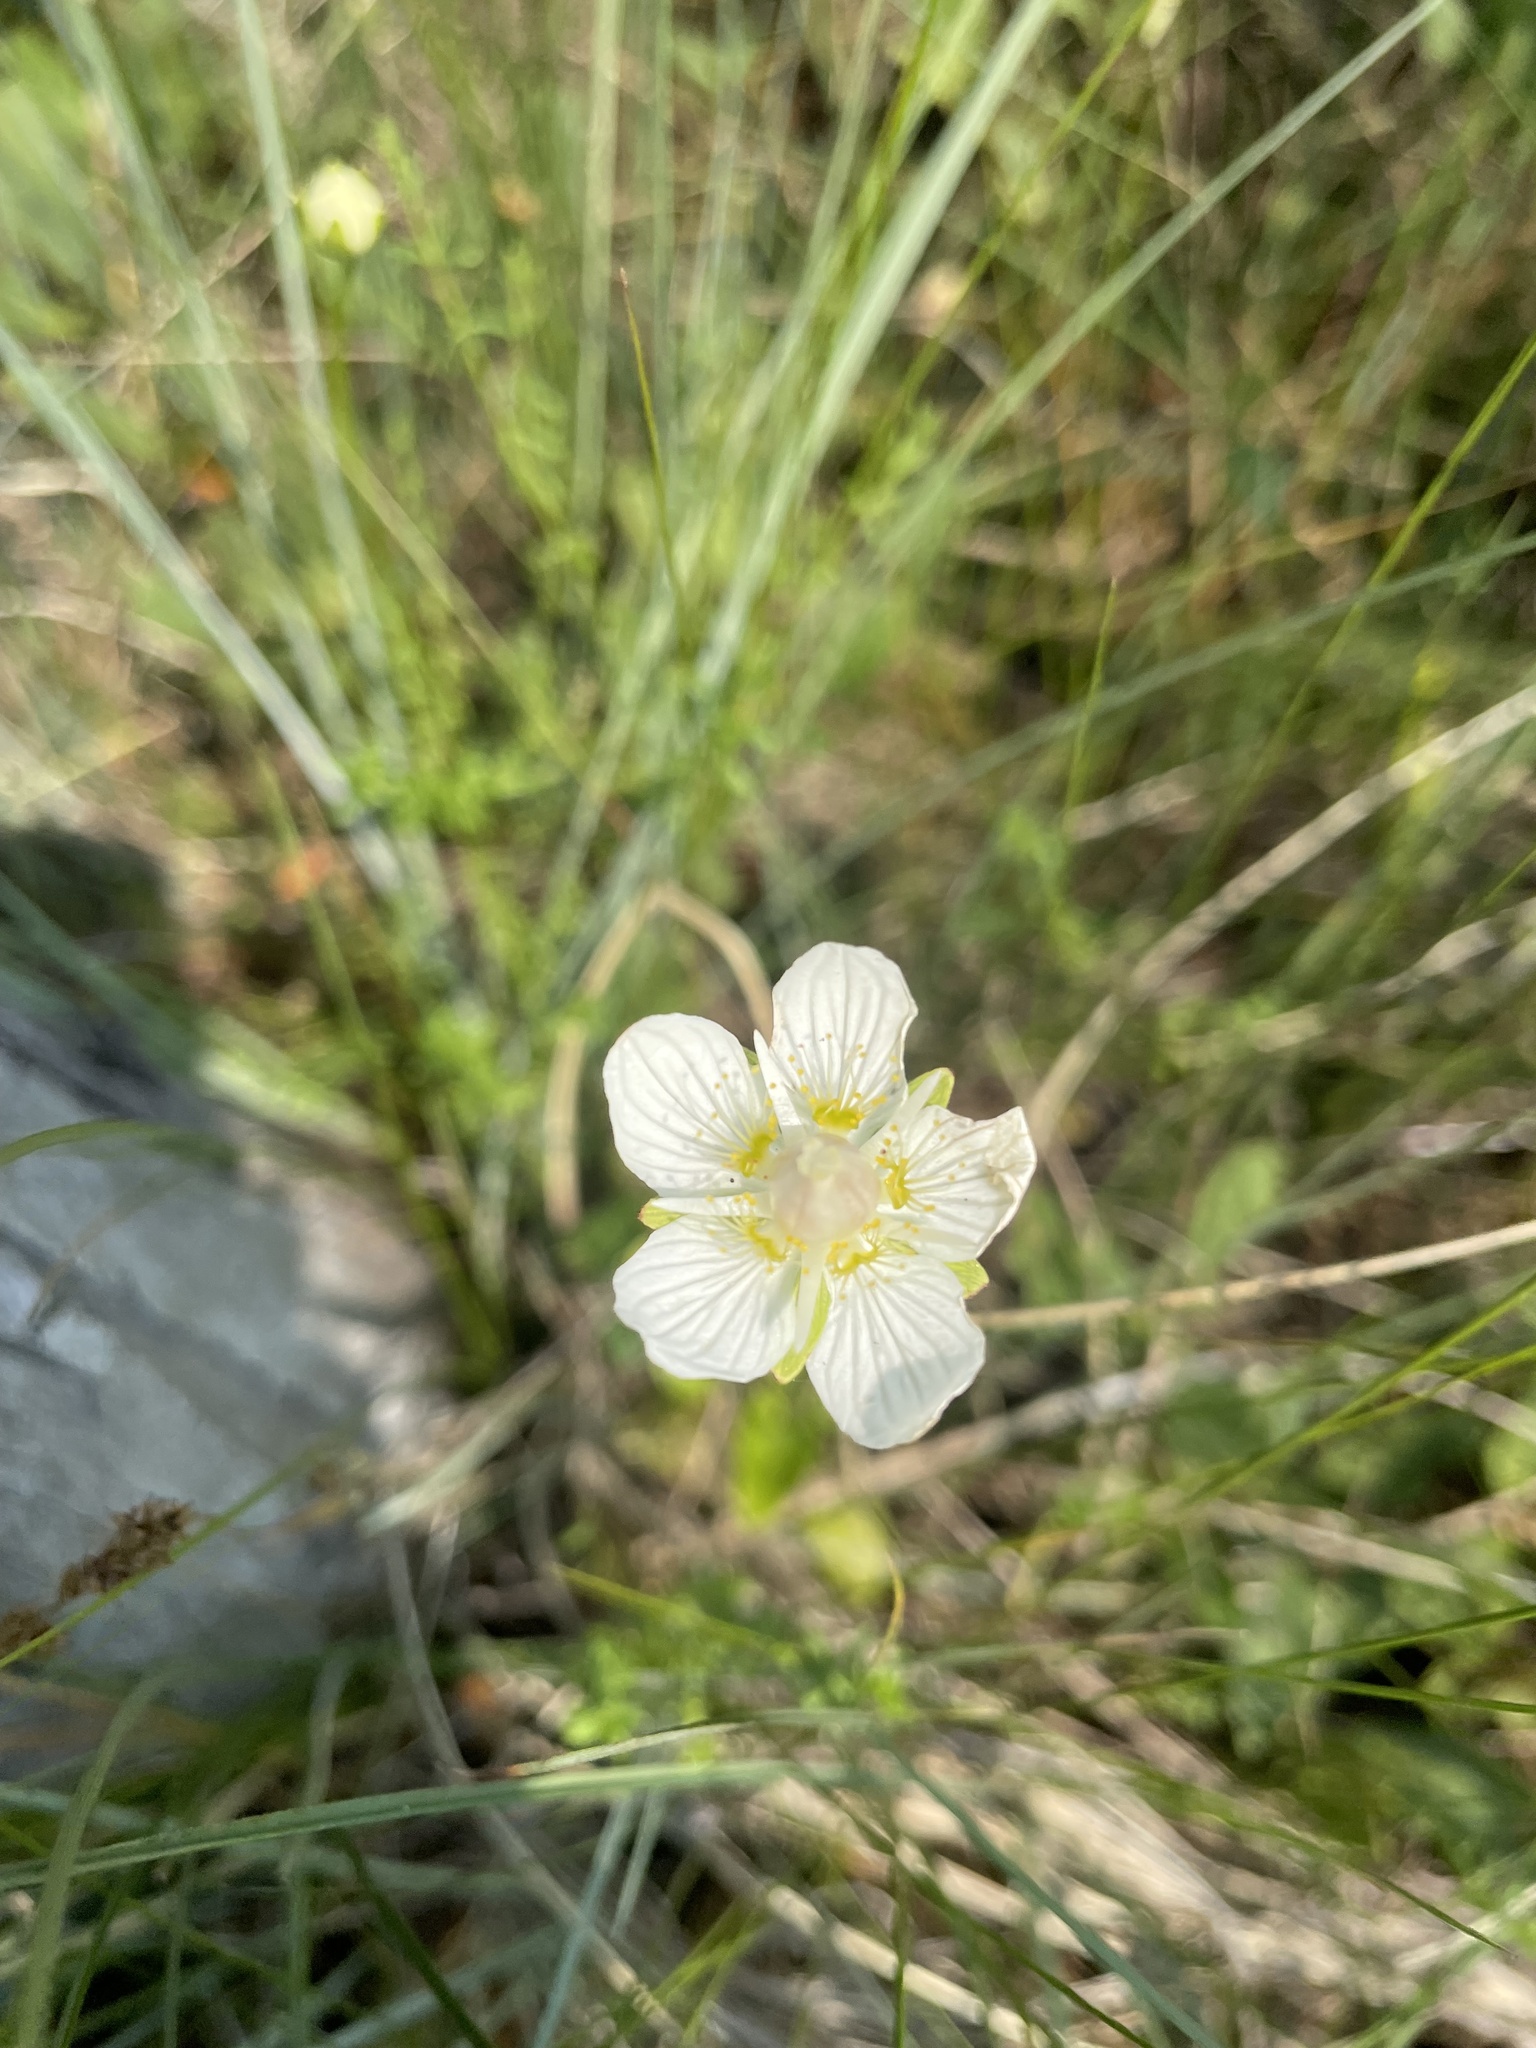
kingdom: Plantae
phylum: Tracheophyta
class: Magnoliopsida
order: Celastrales
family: Parnassiaceae
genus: Parnassia
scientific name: Parnassia palustris
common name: Grass-of-parnassus
